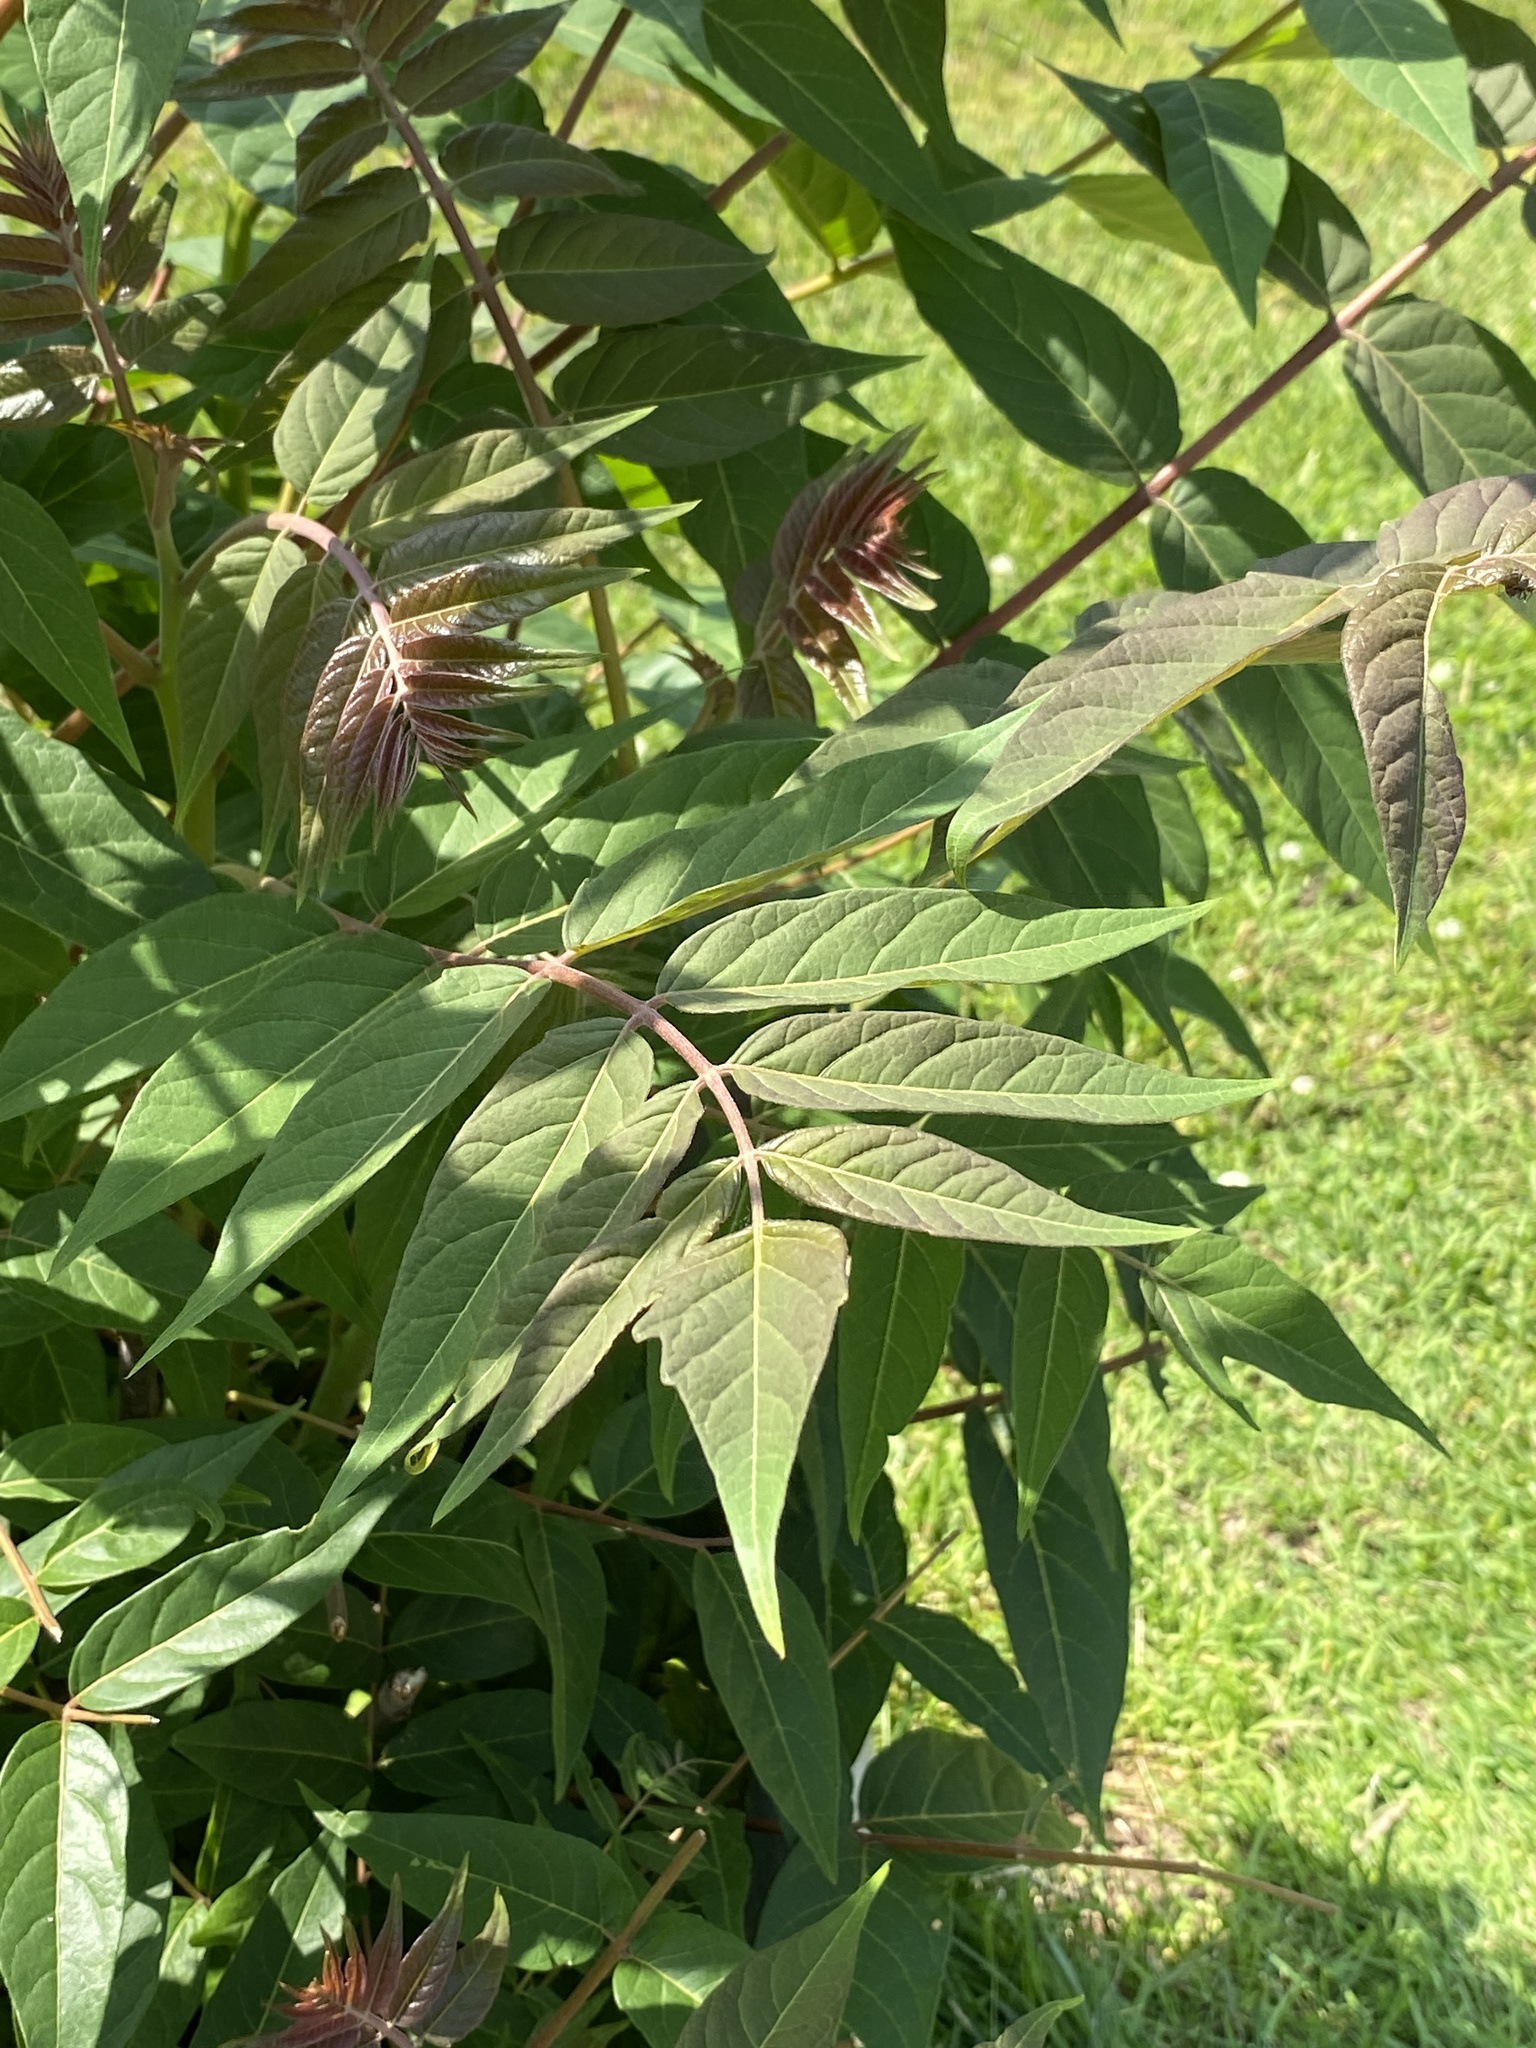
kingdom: Plantae
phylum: Tracheophyta
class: Magnoliopsida
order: Sapindales
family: Simaroubaceae
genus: Ailanthus
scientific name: Ailanthus altissima
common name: Tree-of-heaven
